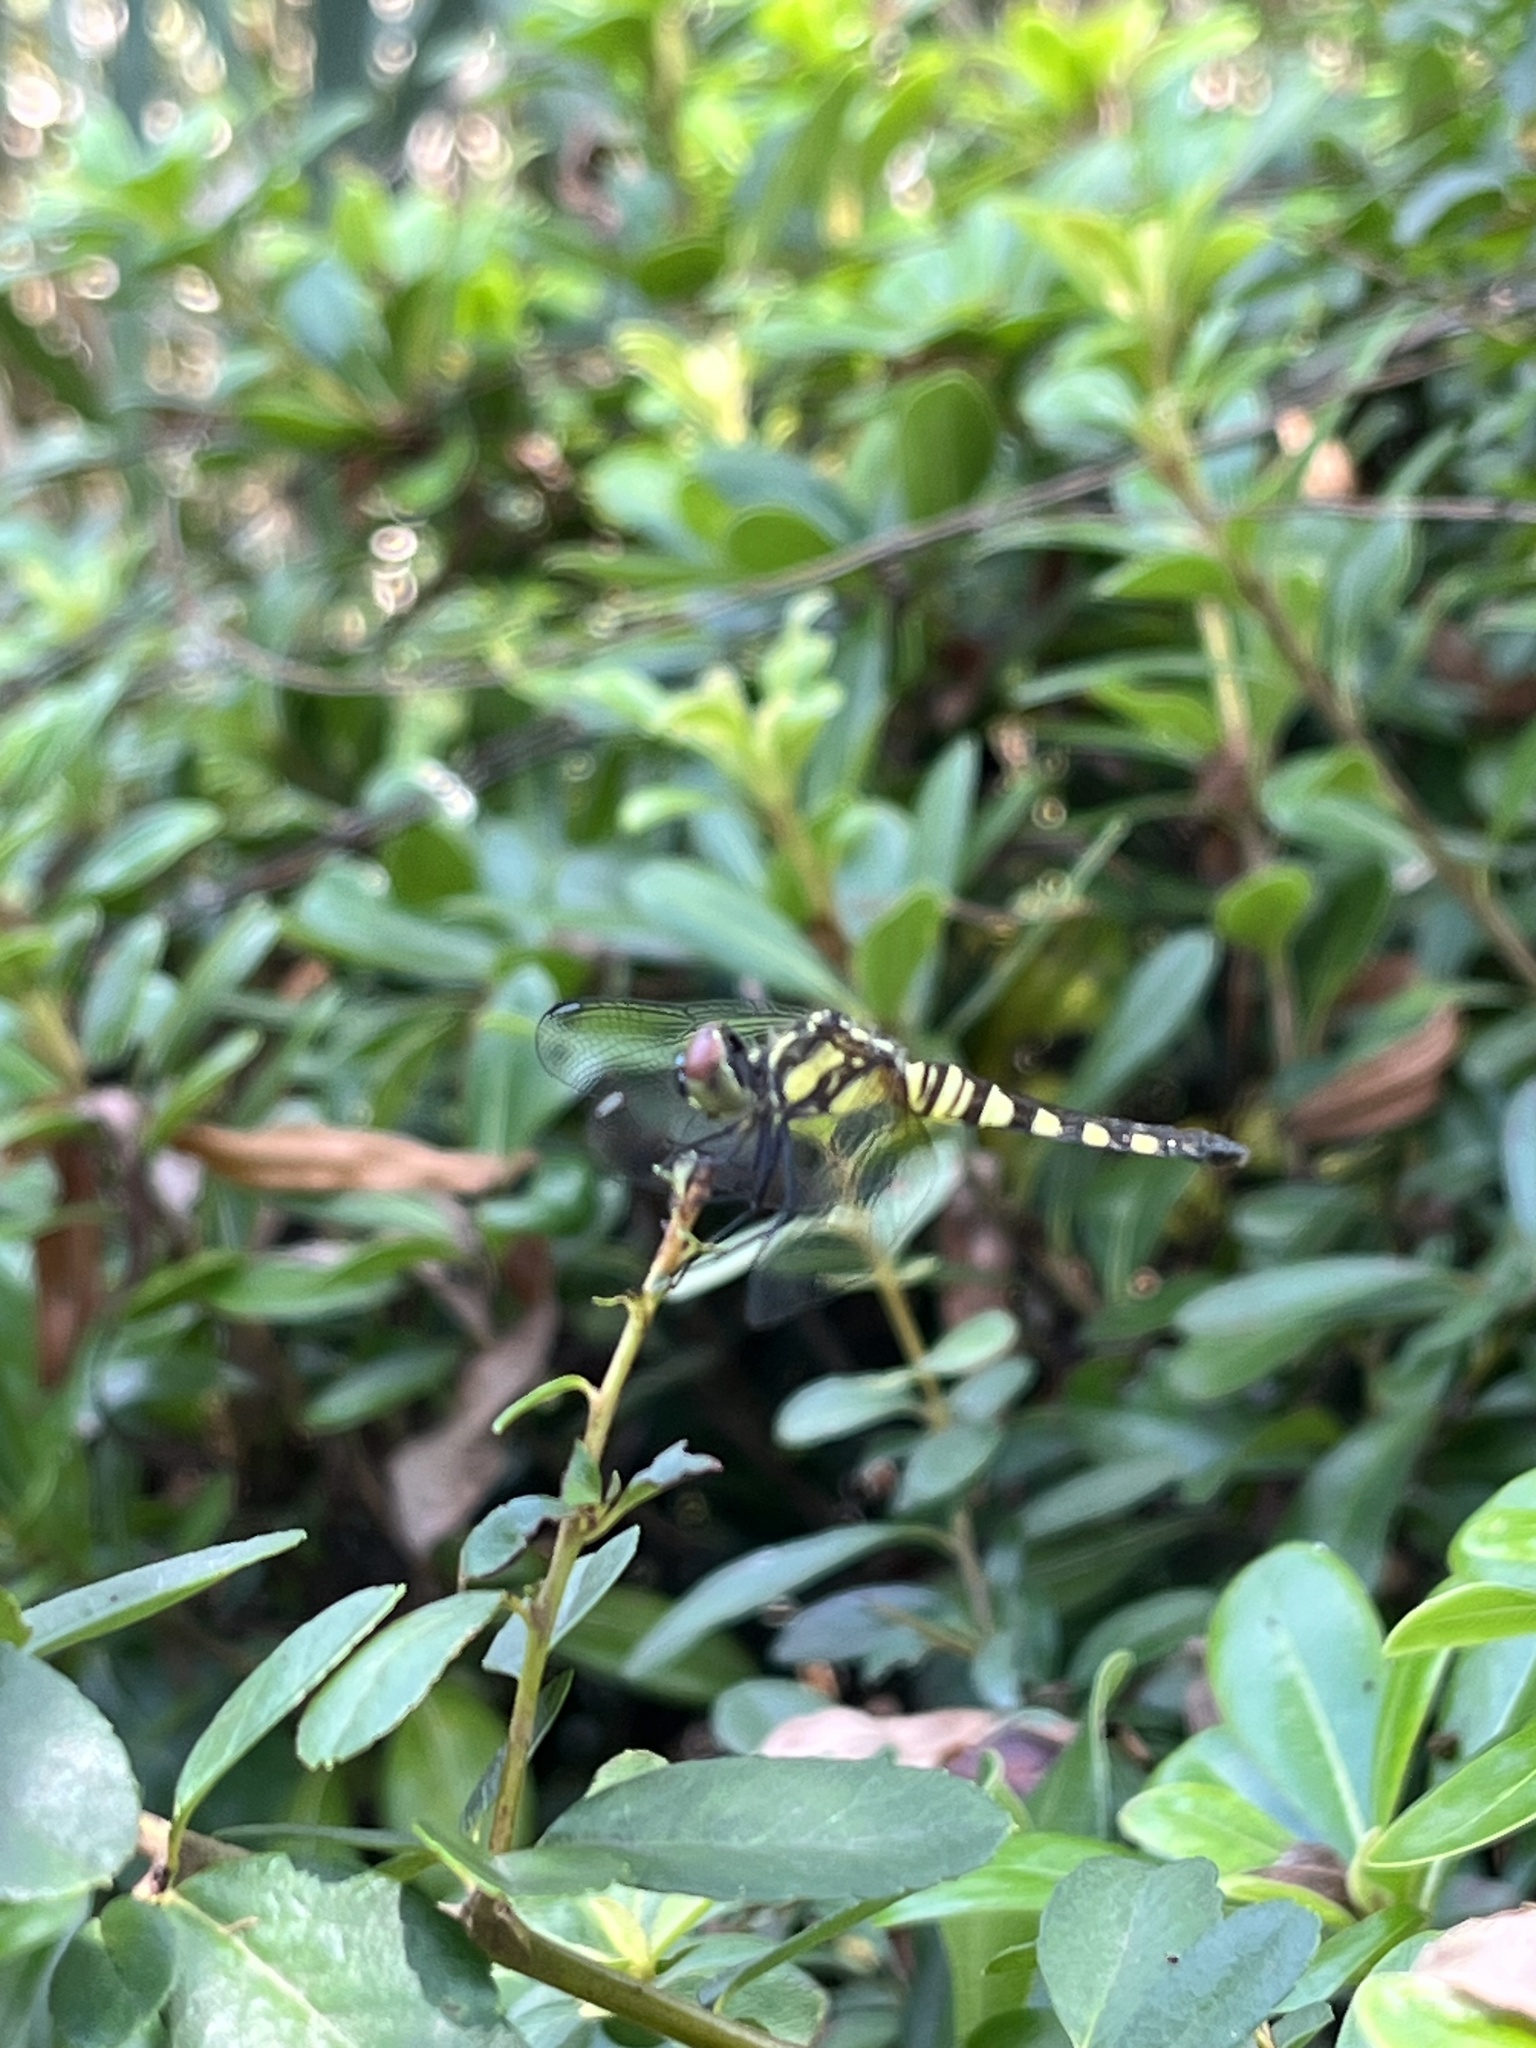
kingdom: Animalia
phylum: Arthropoda
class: Insecta
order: Odonata
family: Libellulidae
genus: Brachydiplax
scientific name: Brachydiplax chalybea
